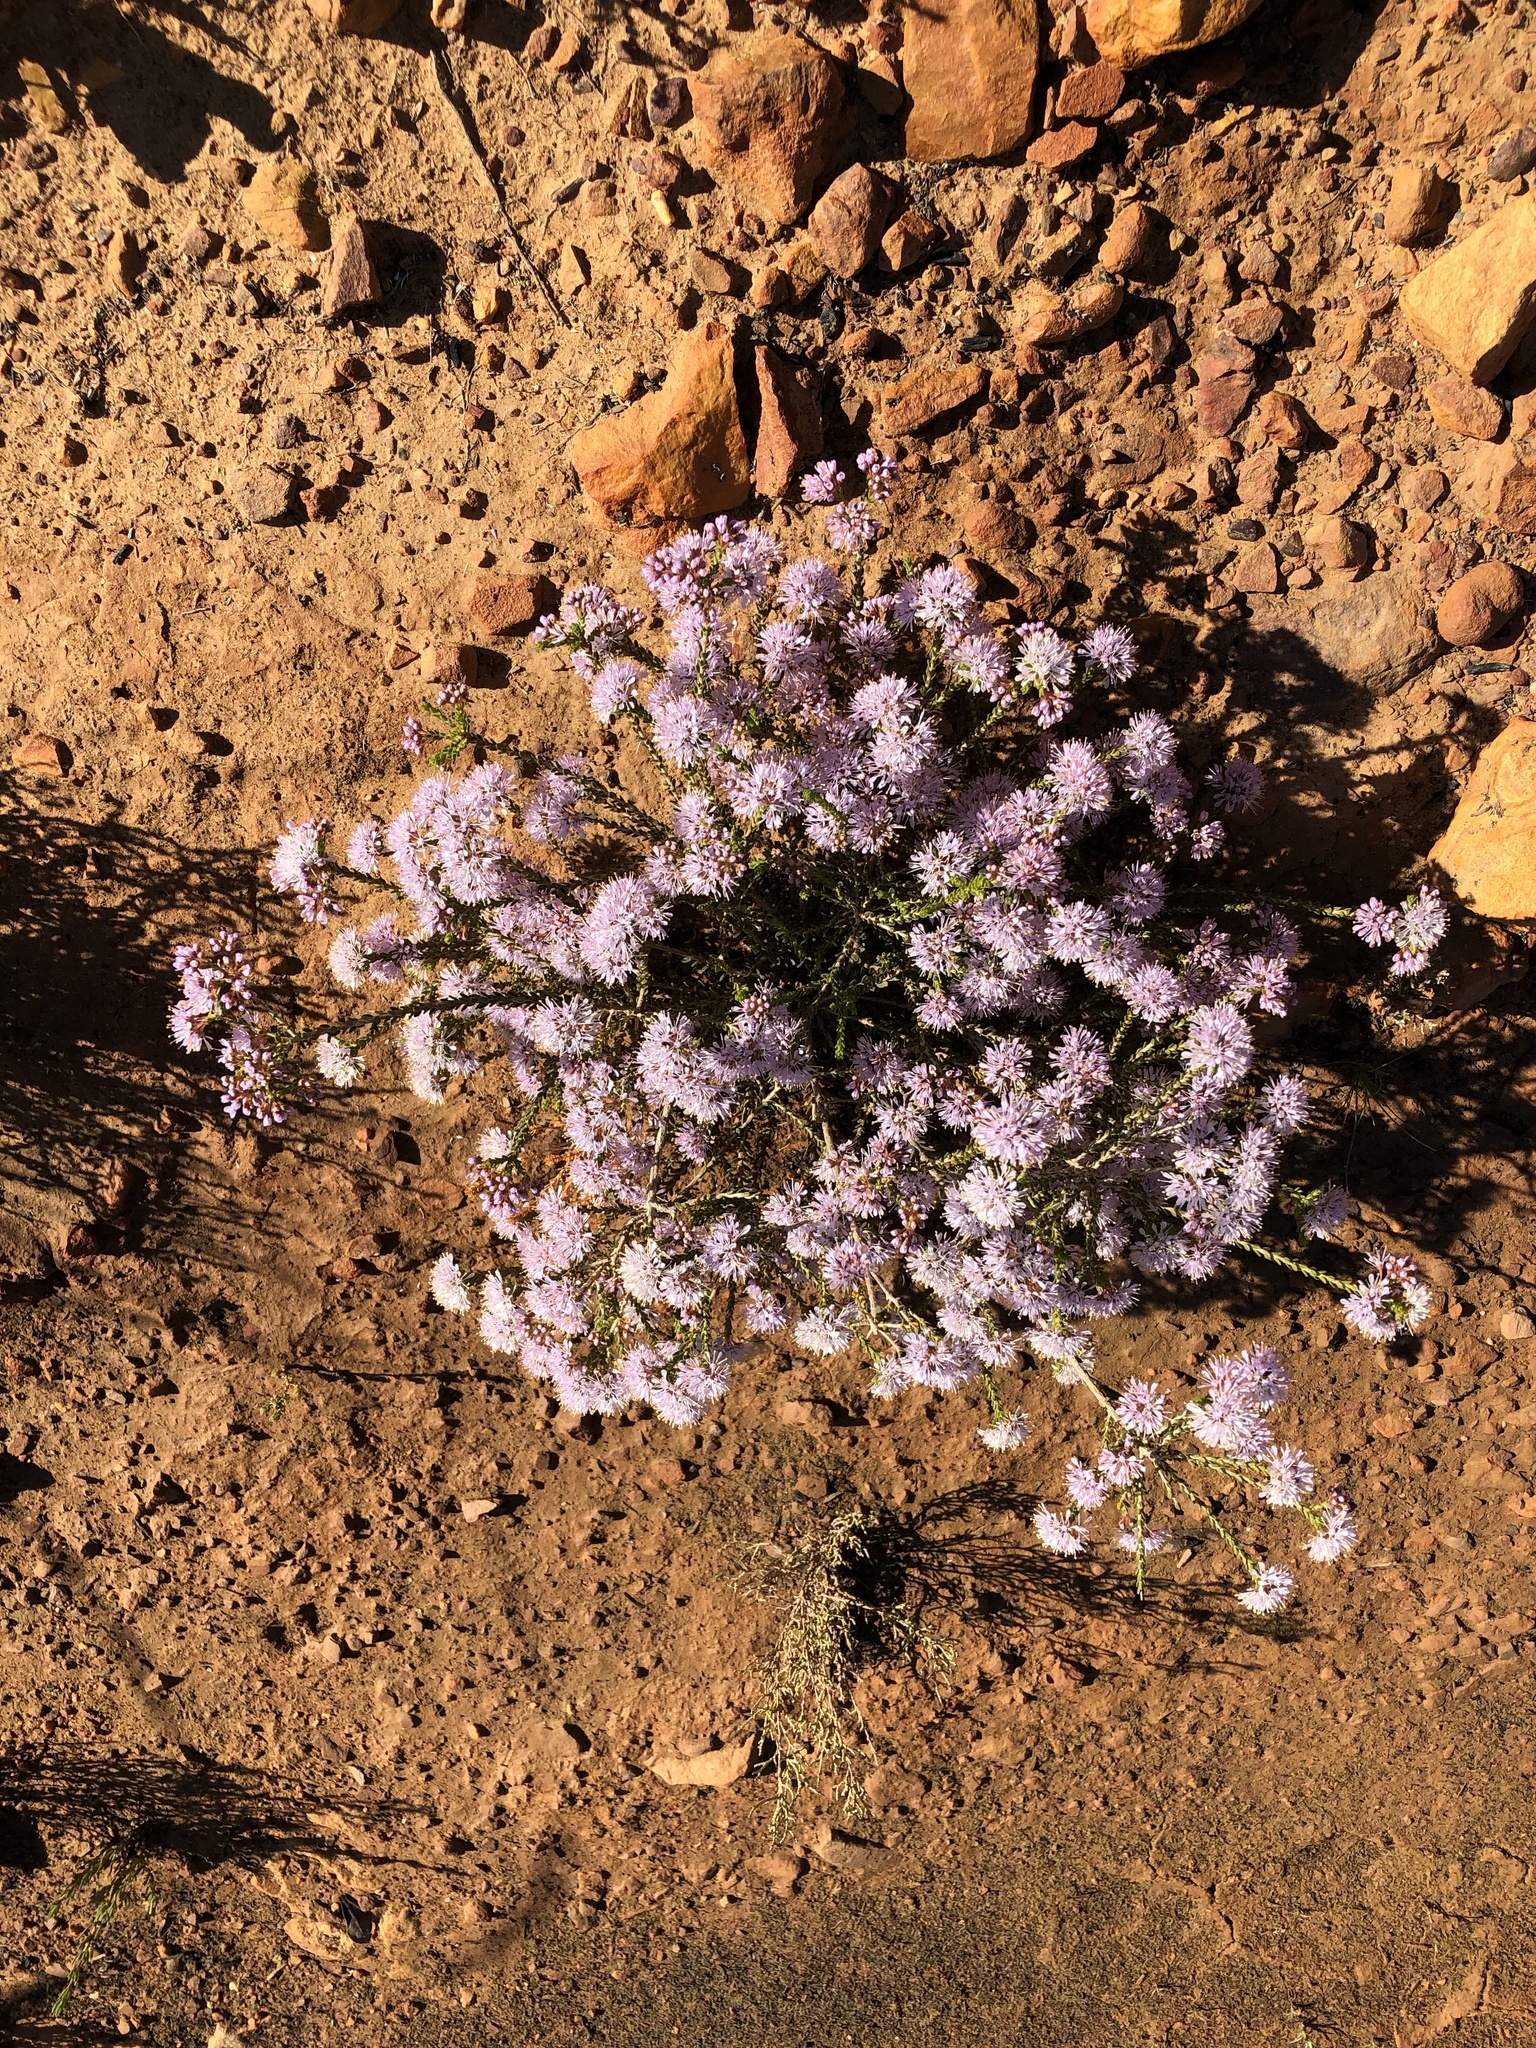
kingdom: Plantae
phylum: Tracheophyta
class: Magnoliopsida
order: Sapindales
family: Rutaceae
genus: Agathosma
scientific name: Agathosma crassifolia
